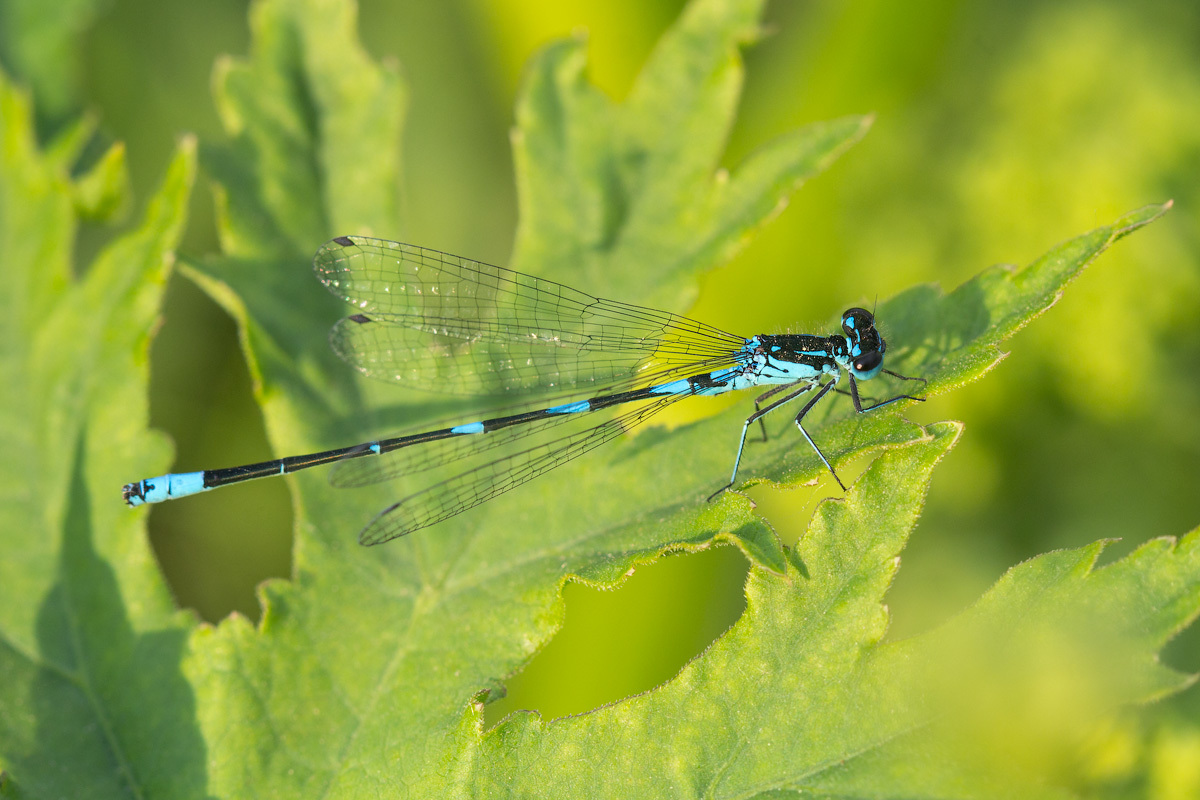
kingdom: Animalia
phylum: Arthropoda
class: Insecta
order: Odonata
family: Coenagrionidae
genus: Coenagrion
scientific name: Coenagrion pulchellum
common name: Variable bluet
